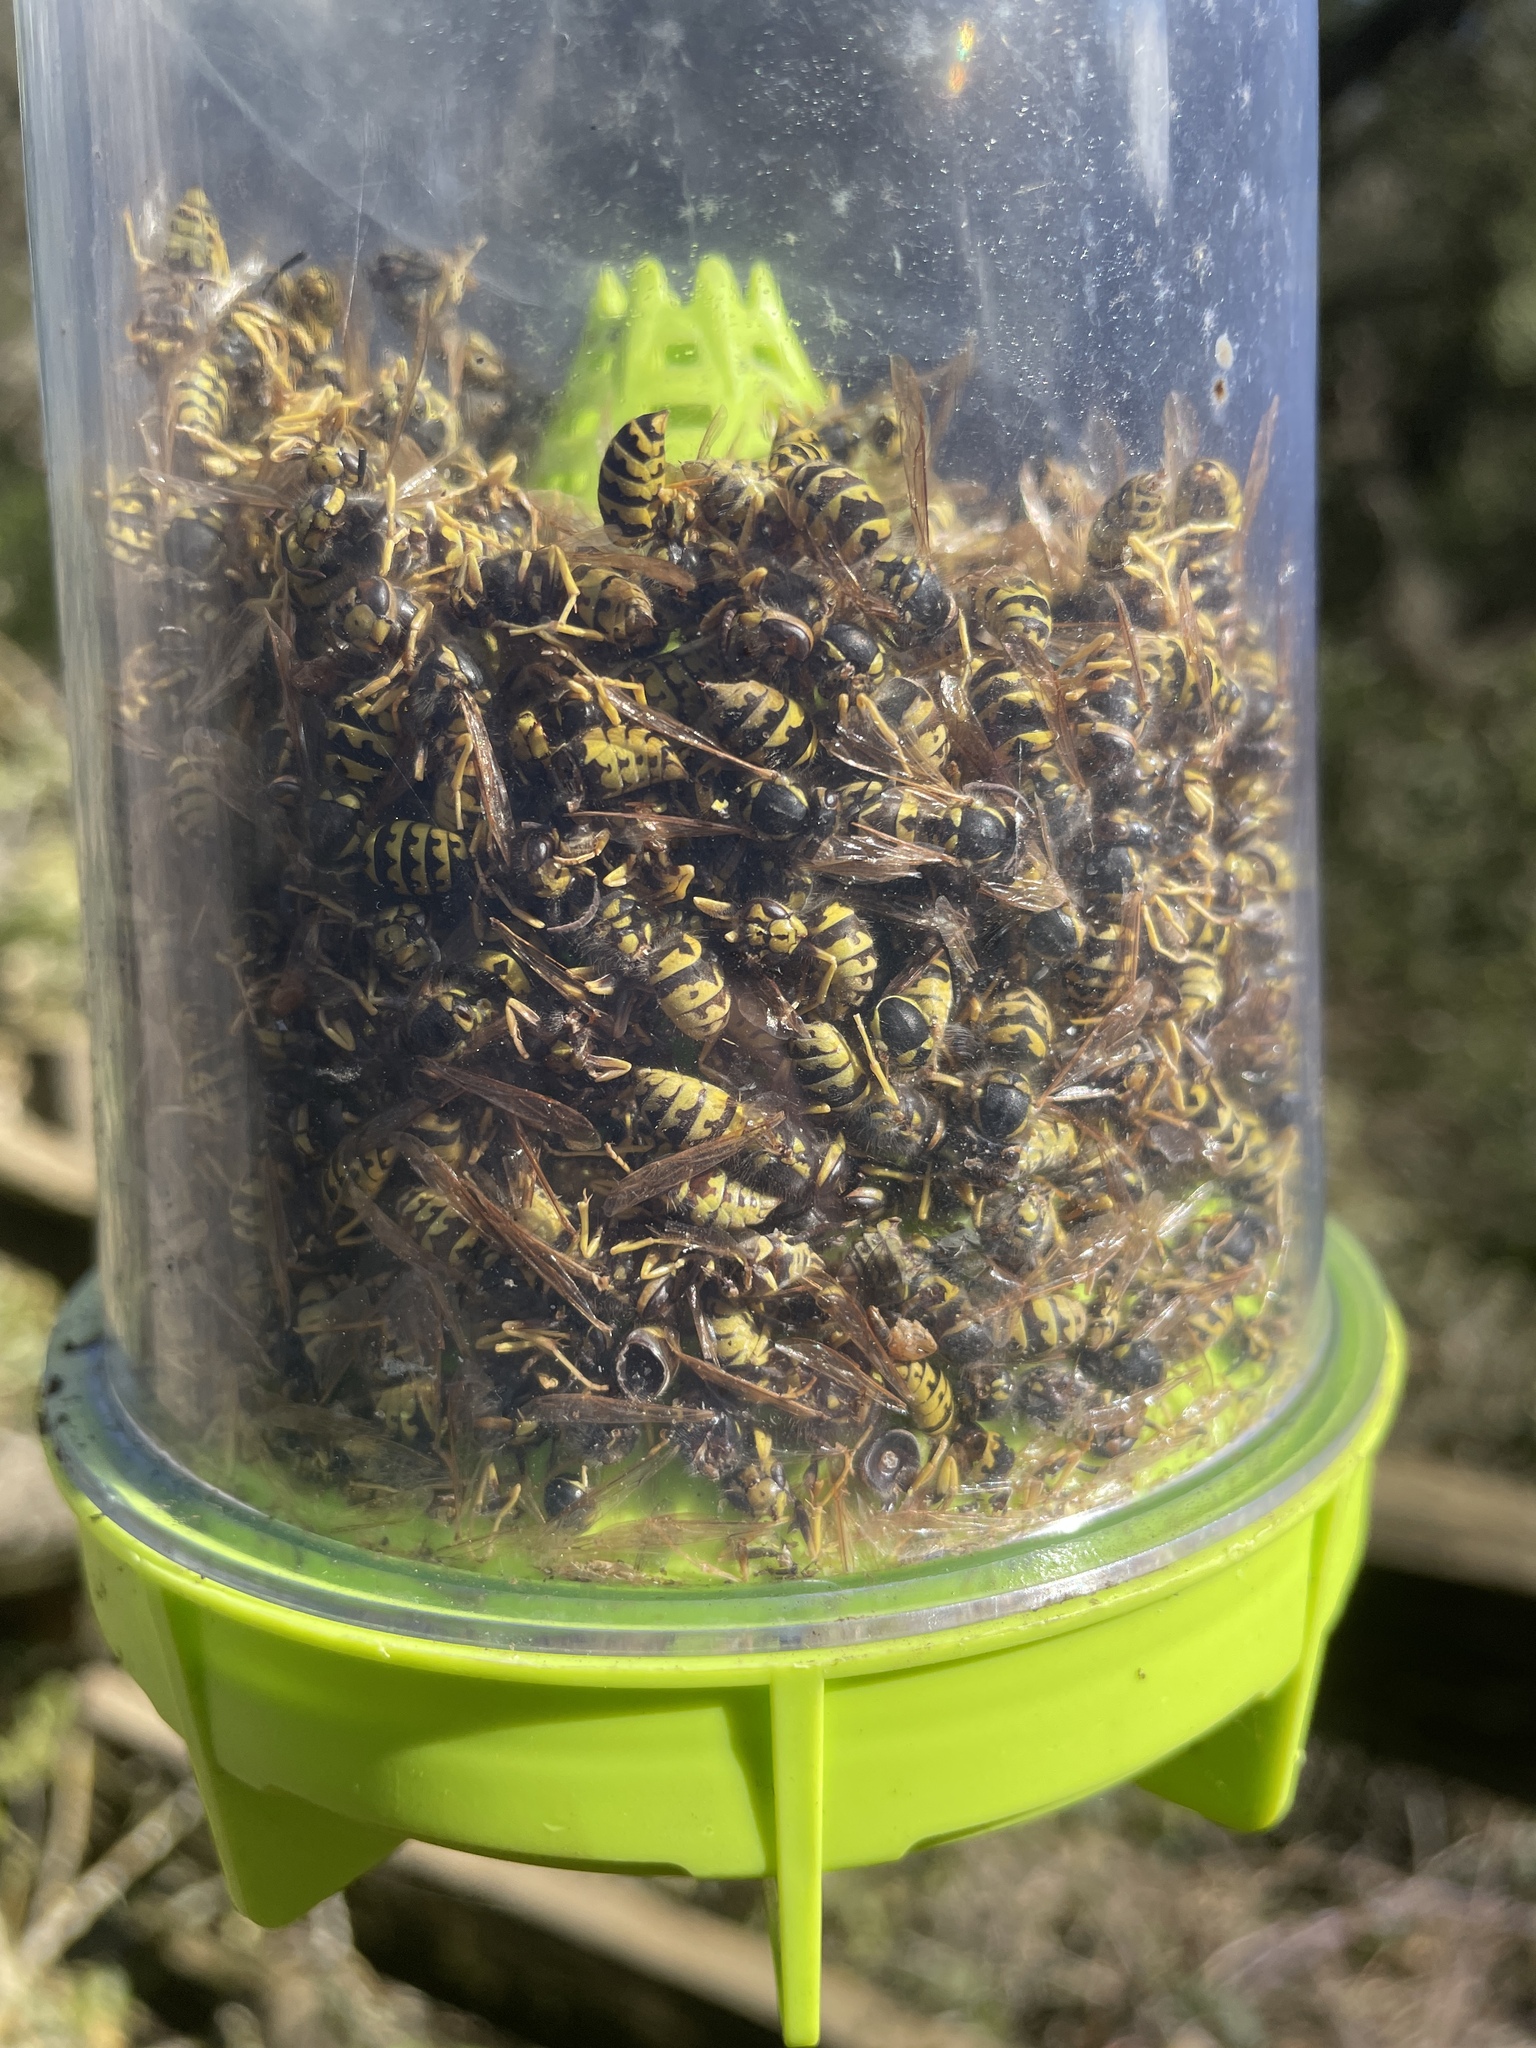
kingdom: Animalia
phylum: Arthropoda
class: Insecta
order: Hymenoptera
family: Vespidae
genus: Vespula
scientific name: Vespula pensylvanica
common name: Western yellowjacket
